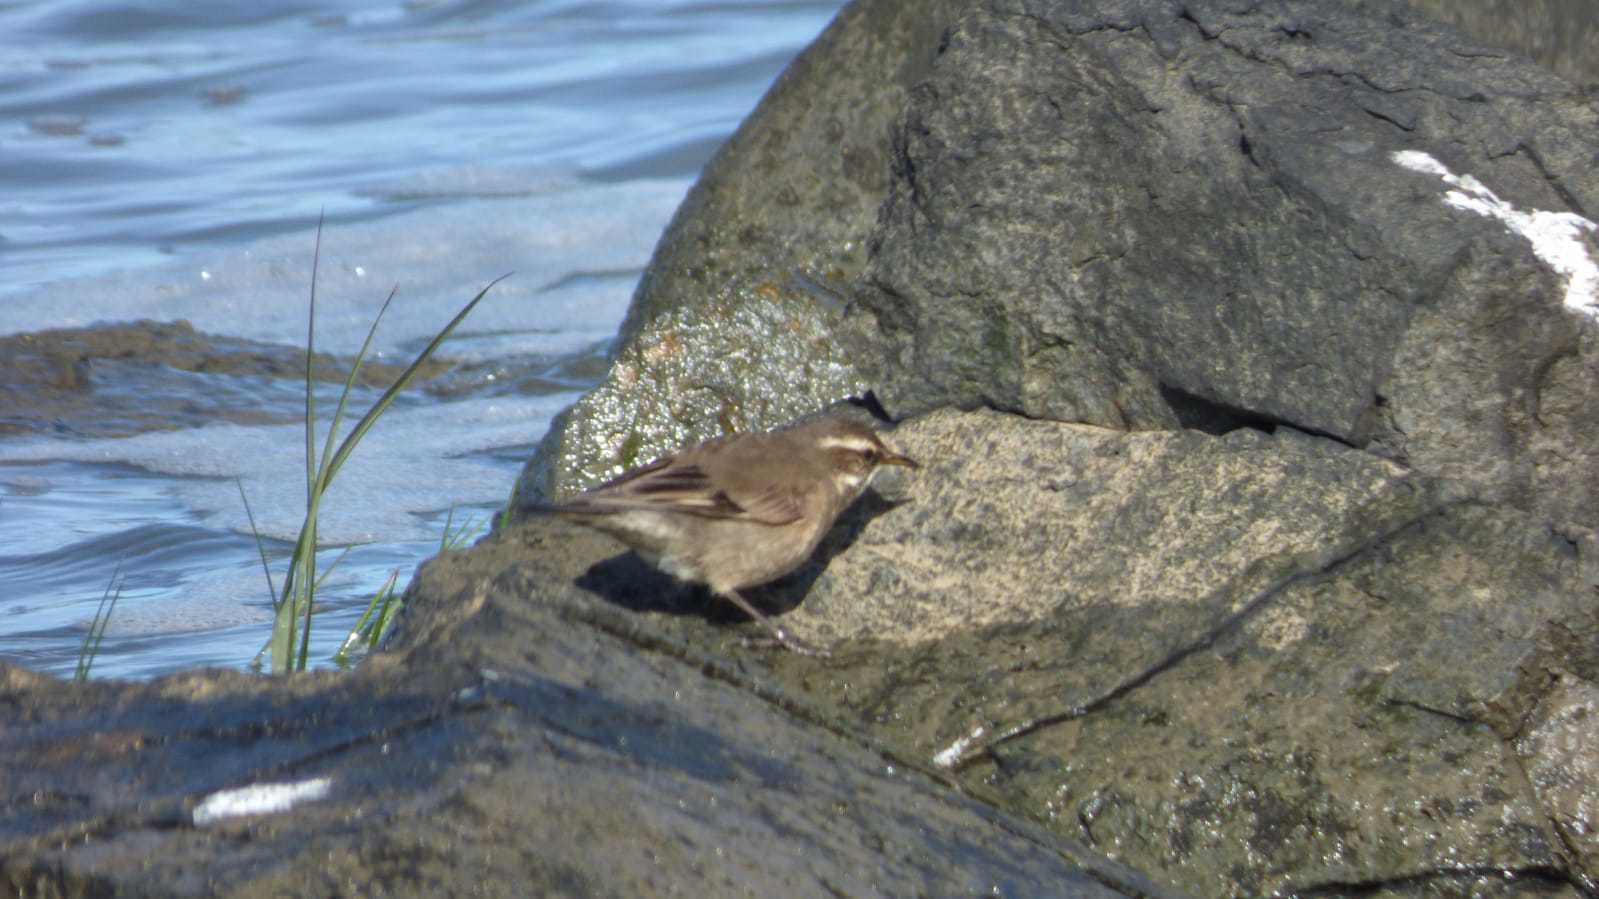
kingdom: Animalia
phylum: Chordata
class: Aves
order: Passeriformes
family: Furnariidae
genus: Cinclodes
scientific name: Cinclodes fuscus
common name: Buff-winged cinclodes
